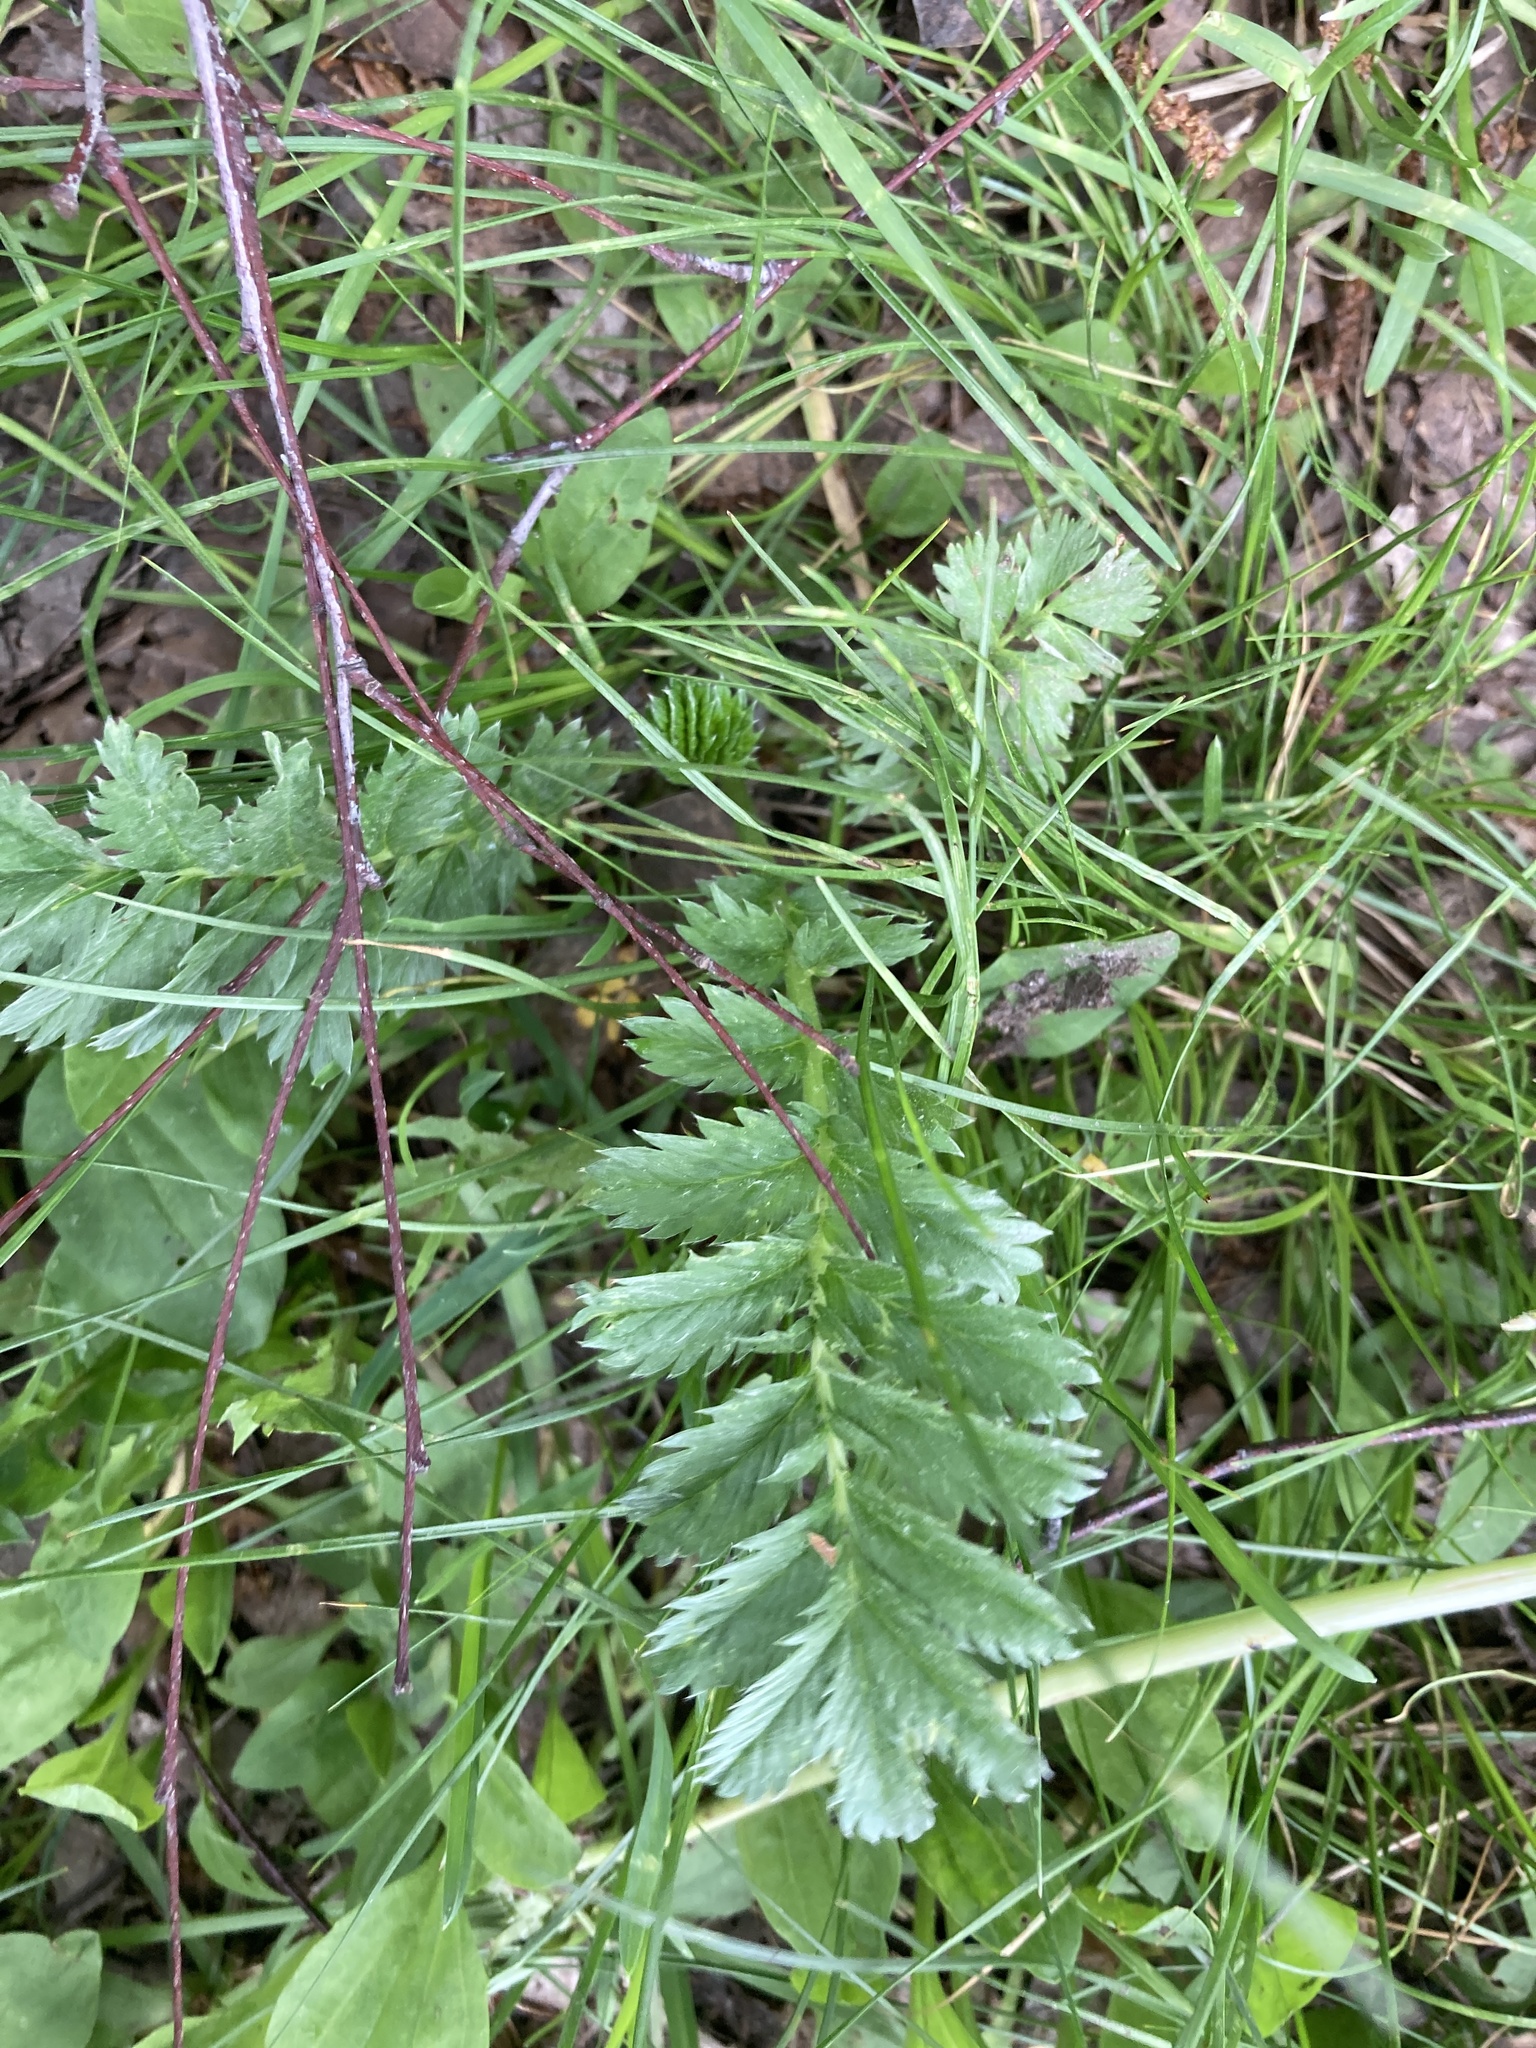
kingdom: Plantae
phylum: Tracheophyta
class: Magnoliopsida
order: Rosales
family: Rosaceae
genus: Argentina
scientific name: Argentina anserina
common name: Common silverweed
